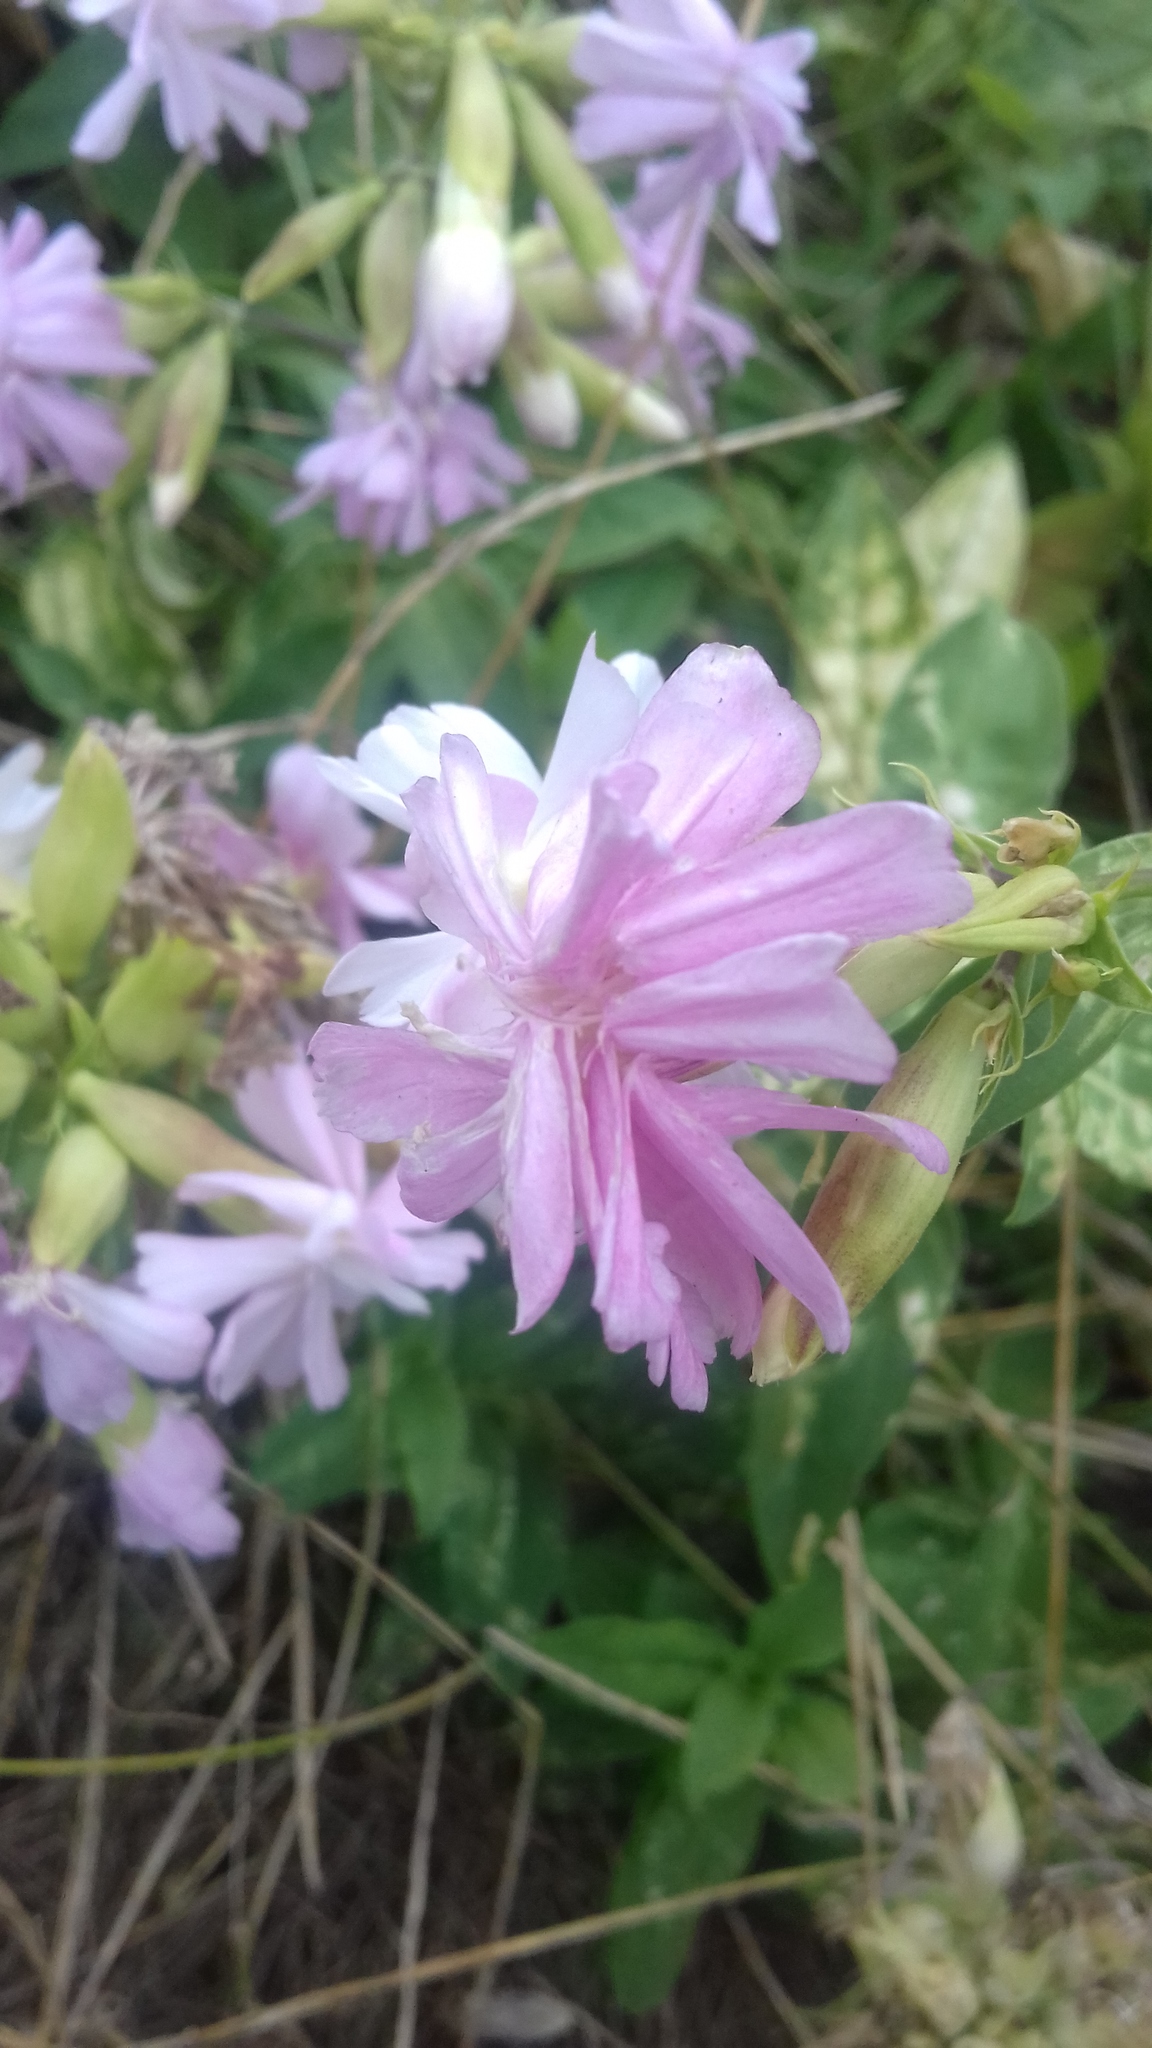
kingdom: Plantae
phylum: Tracheophyta
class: Magnoliopsida
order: Caryophyllales
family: Caryophyllaceae
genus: Saponaria
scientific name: Saponaria officinalis
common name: Soapwort
